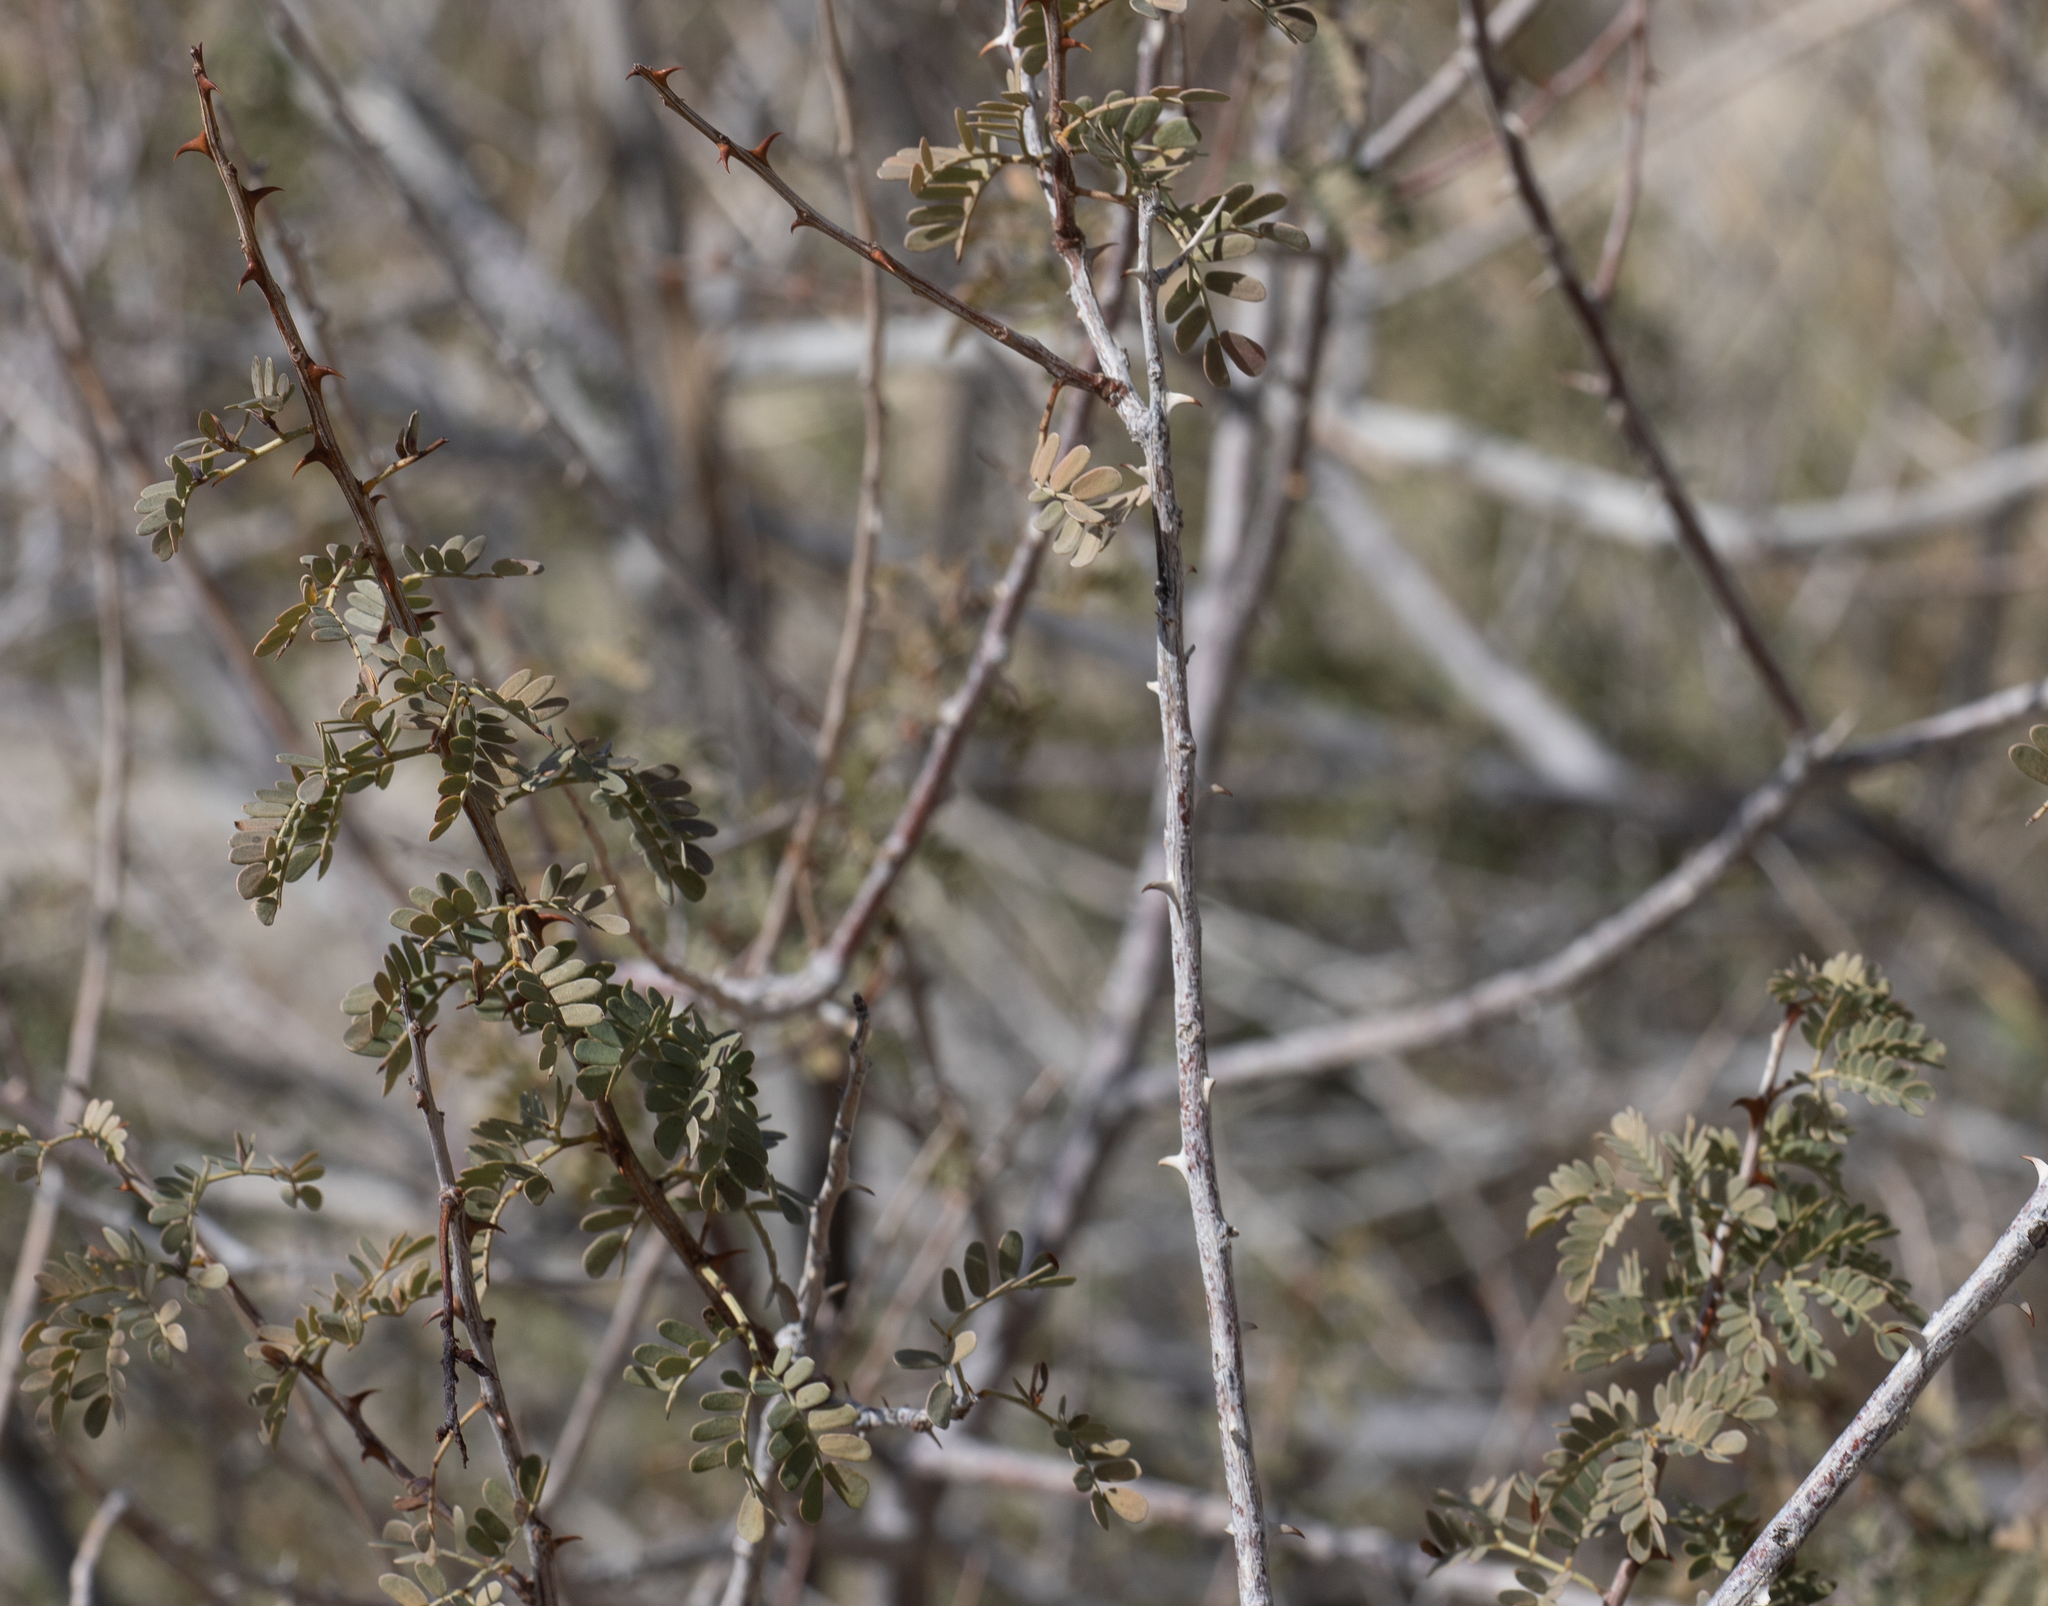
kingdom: Plantae
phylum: Tracheophyta
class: Magnoliopsida
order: Fabales
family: Fabaceae
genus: Senegalia
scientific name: Senegalia greggii
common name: Texas-mimosa
